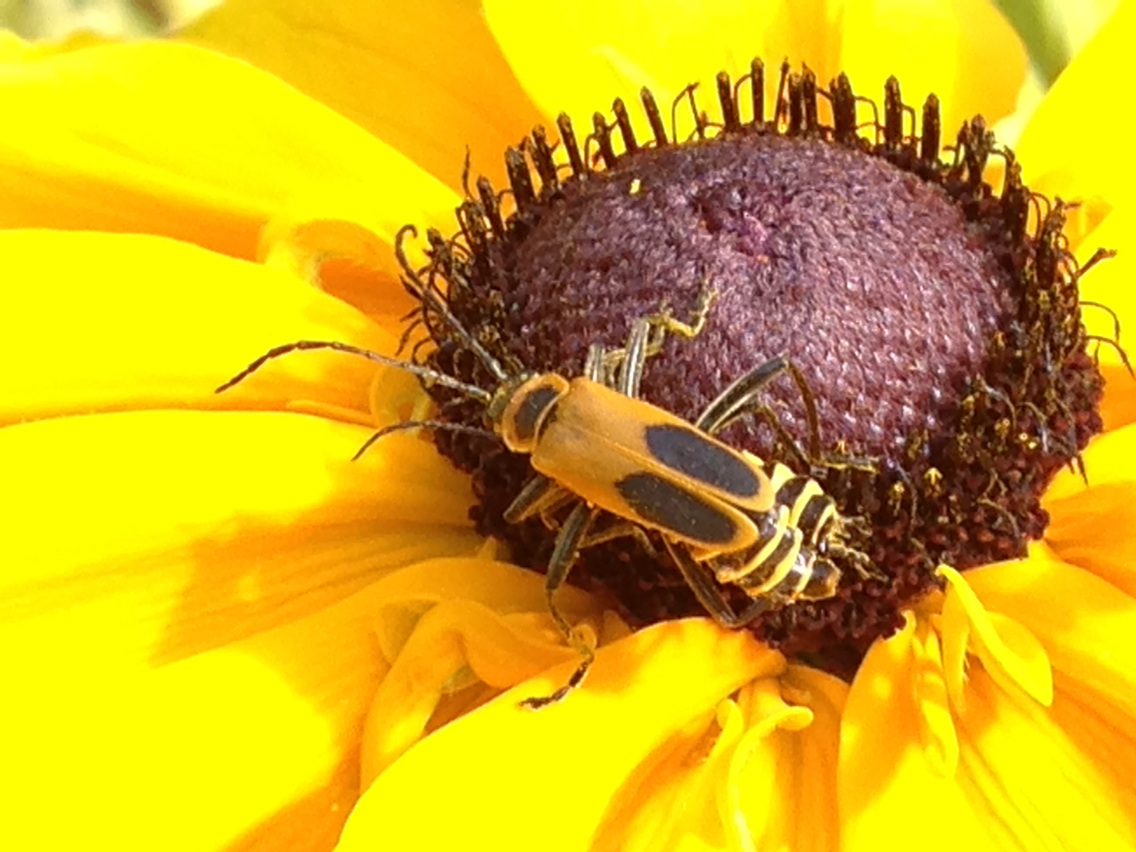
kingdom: Animalia
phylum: Arthropoda
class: Insecta
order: Coleoptera
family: Cantharidae
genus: Chauliognathus
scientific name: Chauliognathus pensylvanicus
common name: Goldenrod soldier beetle
